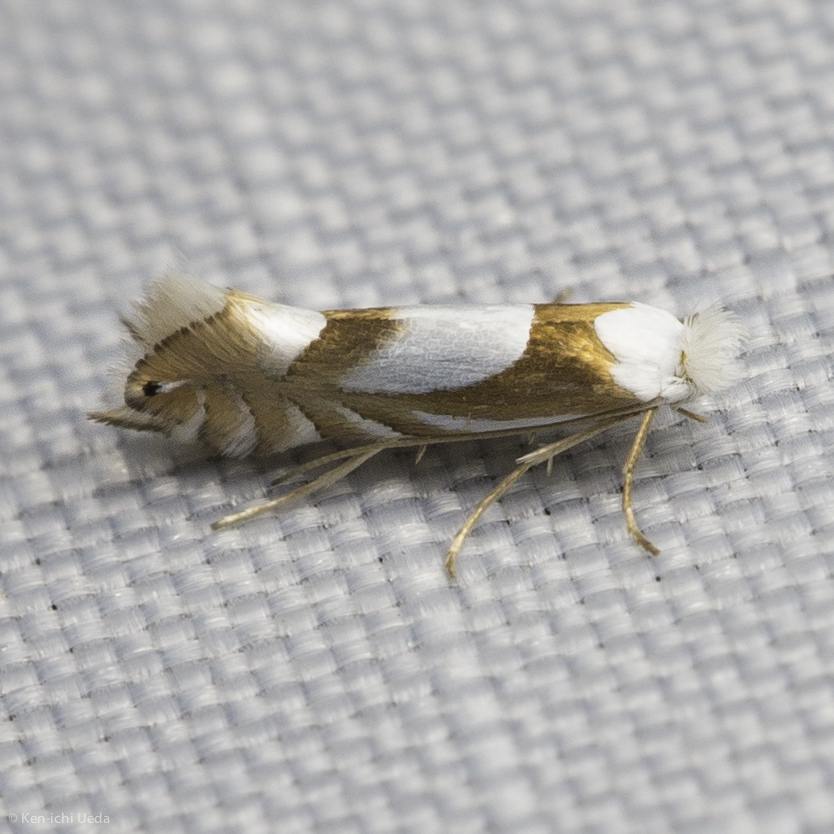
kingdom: Animalia
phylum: Arthropoda
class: Insecta
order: Lepidoptera
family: Gracillariidae
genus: Phyllonorycter
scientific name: Phyllonorycter fitchella
